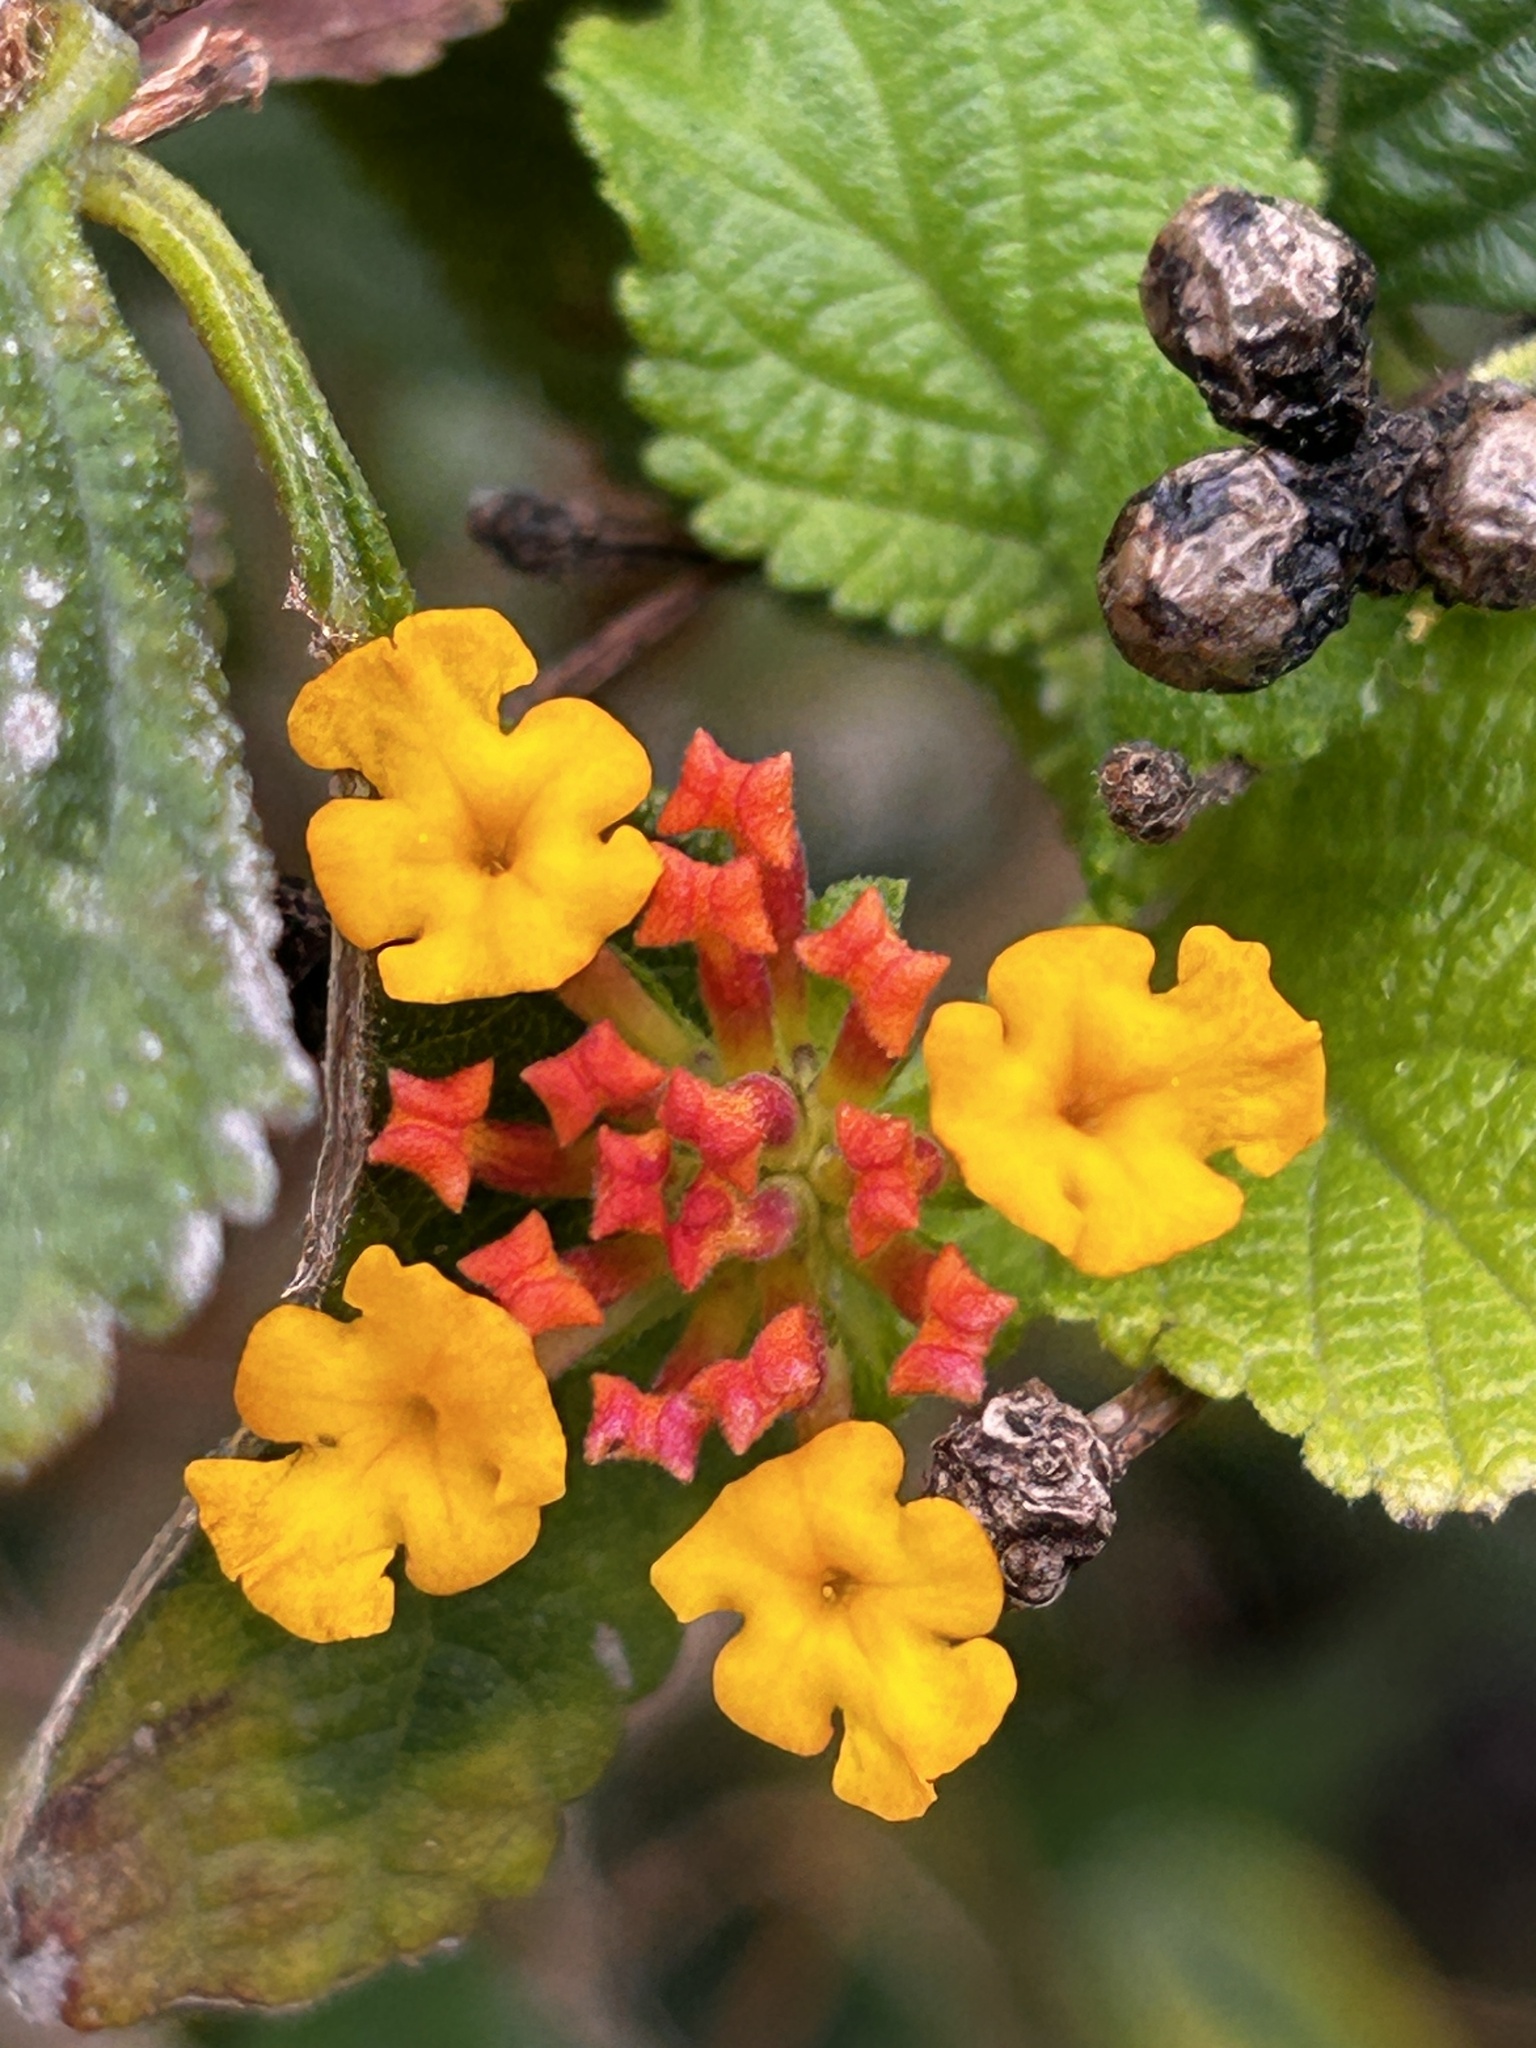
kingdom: Plantae
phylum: Tracheophyta
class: Magnoliopsida
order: Lamiales
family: Verbenaceae
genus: Lantana
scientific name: Lantana camara
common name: Lantana
